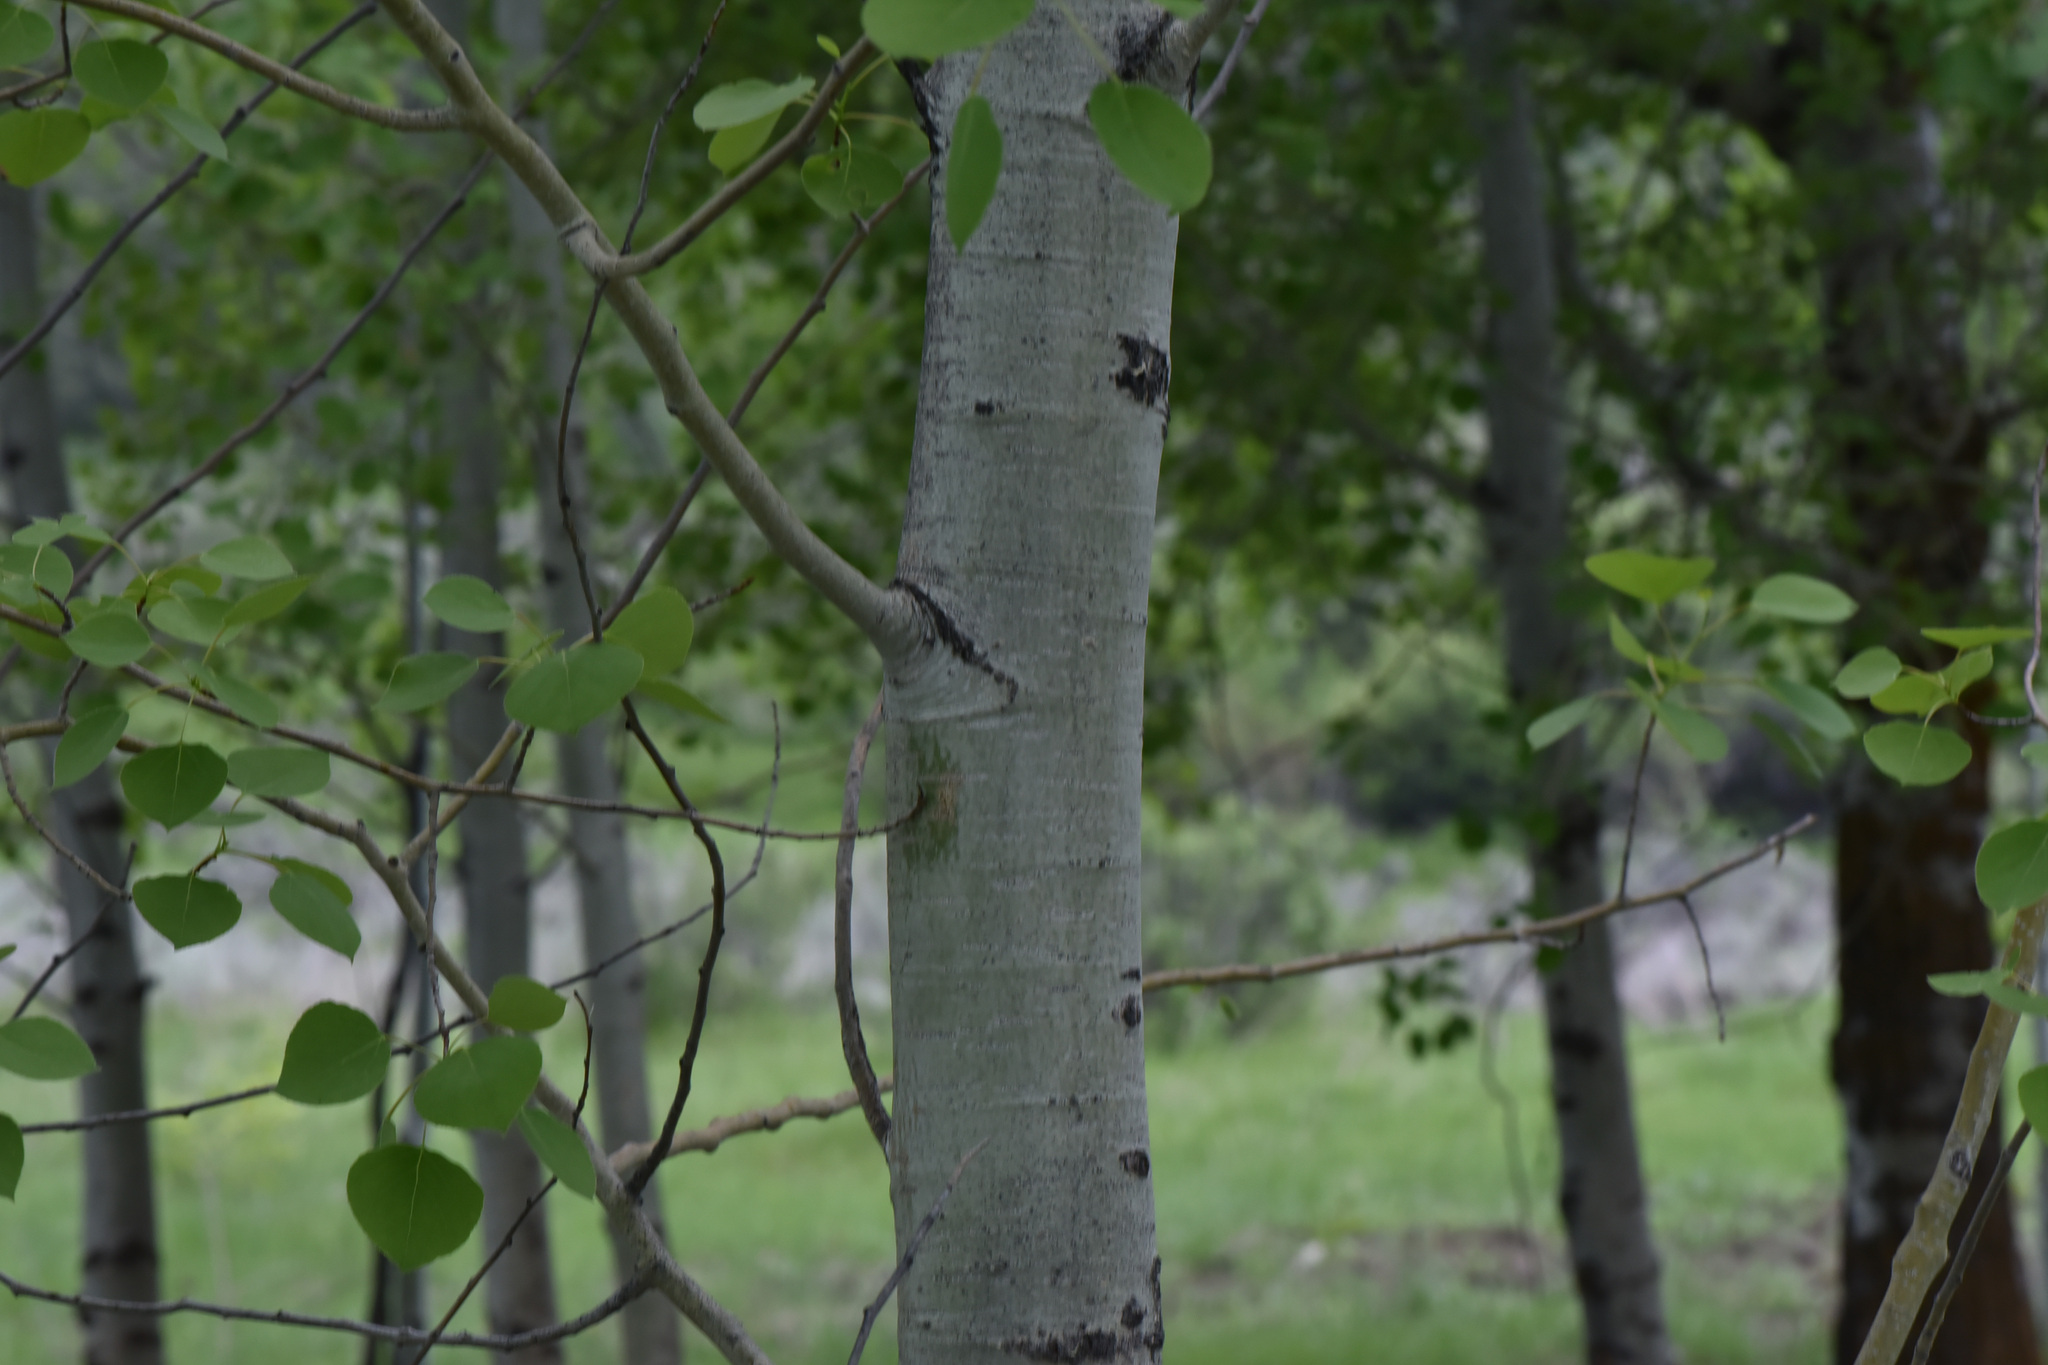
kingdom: Plantae
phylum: Tracheophyta
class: Magnoliopsida
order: Malpighiales
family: Salicaceae
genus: Populus
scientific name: Populus tremuloides
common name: Quaking aspen
